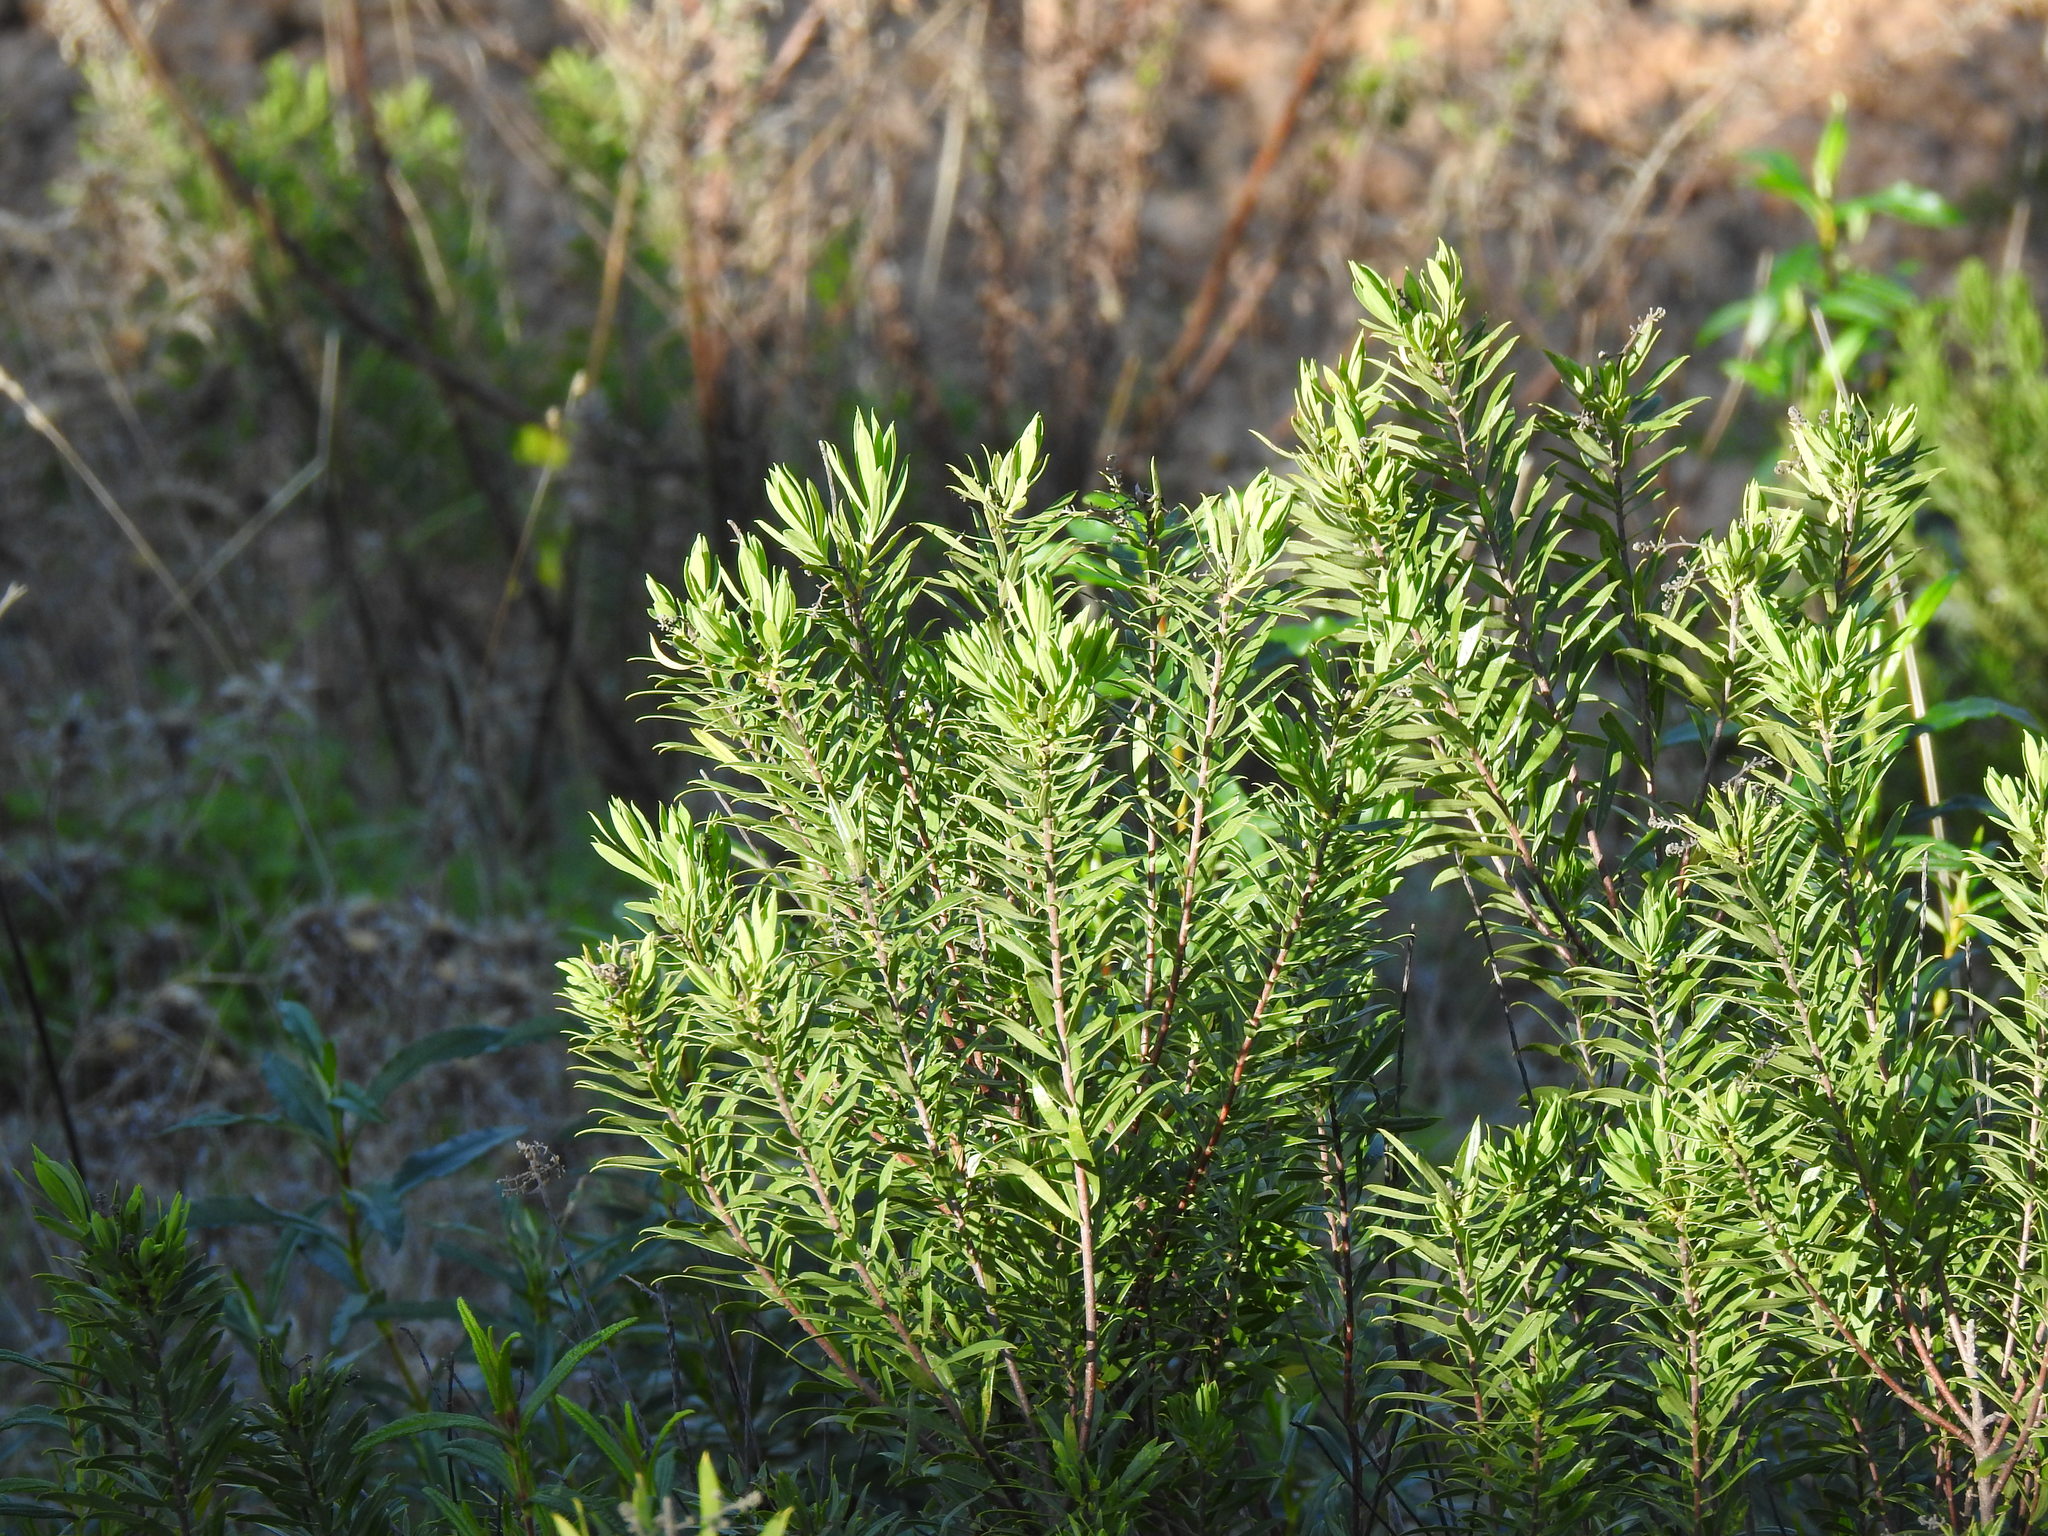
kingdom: Plantae
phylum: Tracheophyta
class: Magnoliopsida
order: Malvales
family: Thymelaeaceae
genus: Daphne
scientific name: Daphne gnidium
